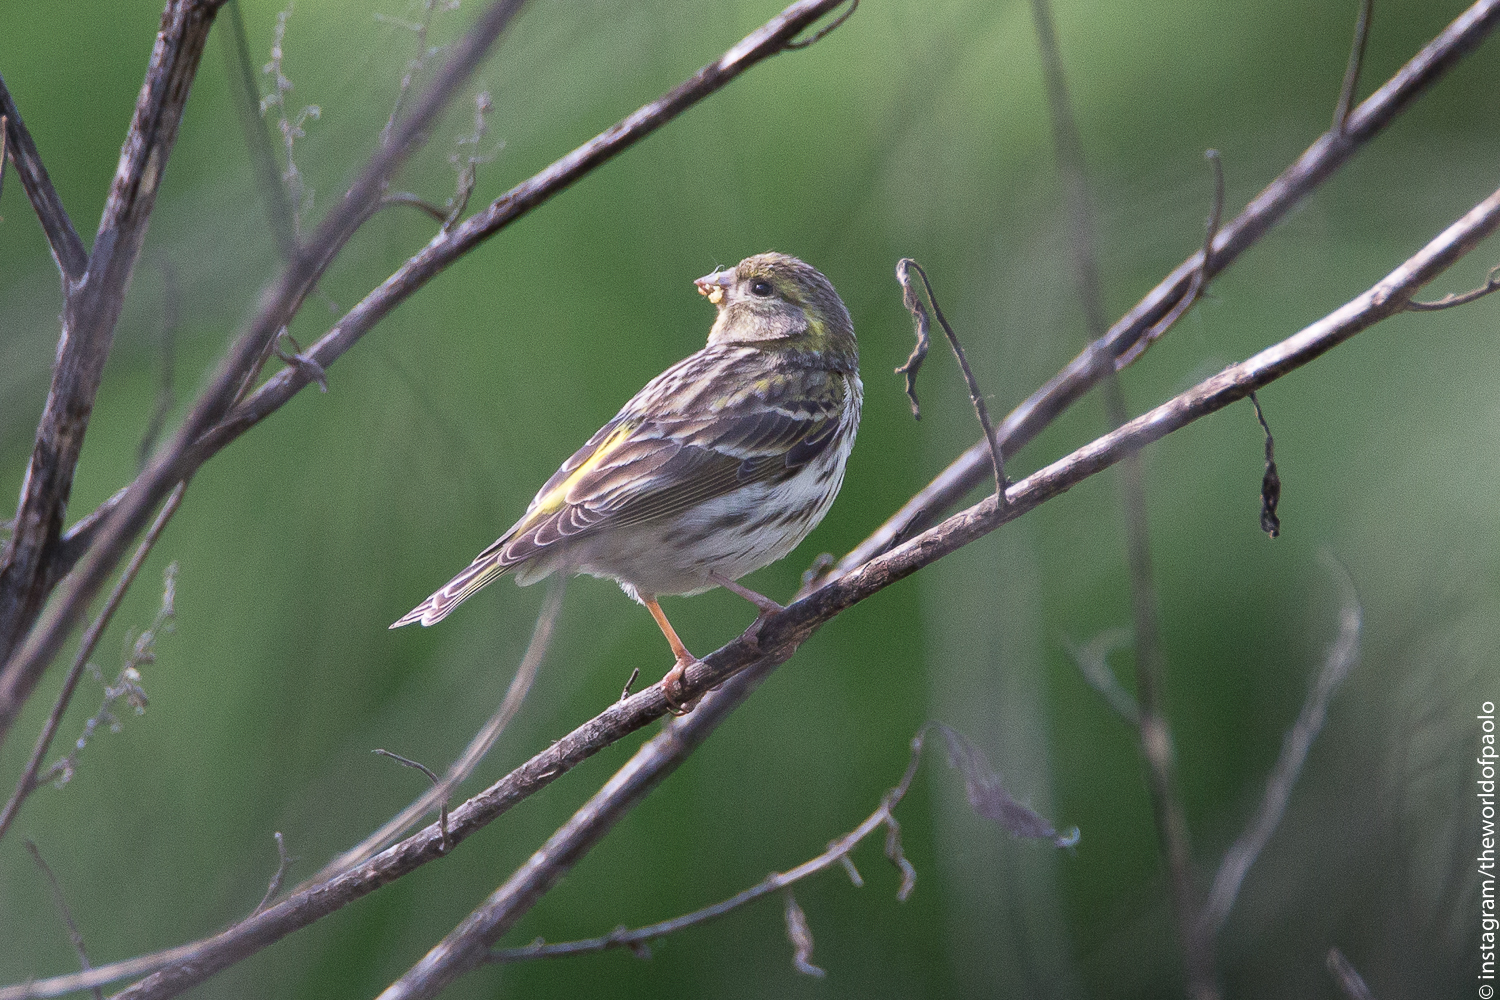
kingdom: Animalia
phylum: Chordata
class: Aves
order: Passeriformes
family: Fringillidae
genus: Serinus
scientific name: Serinus serinus
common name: European serin
